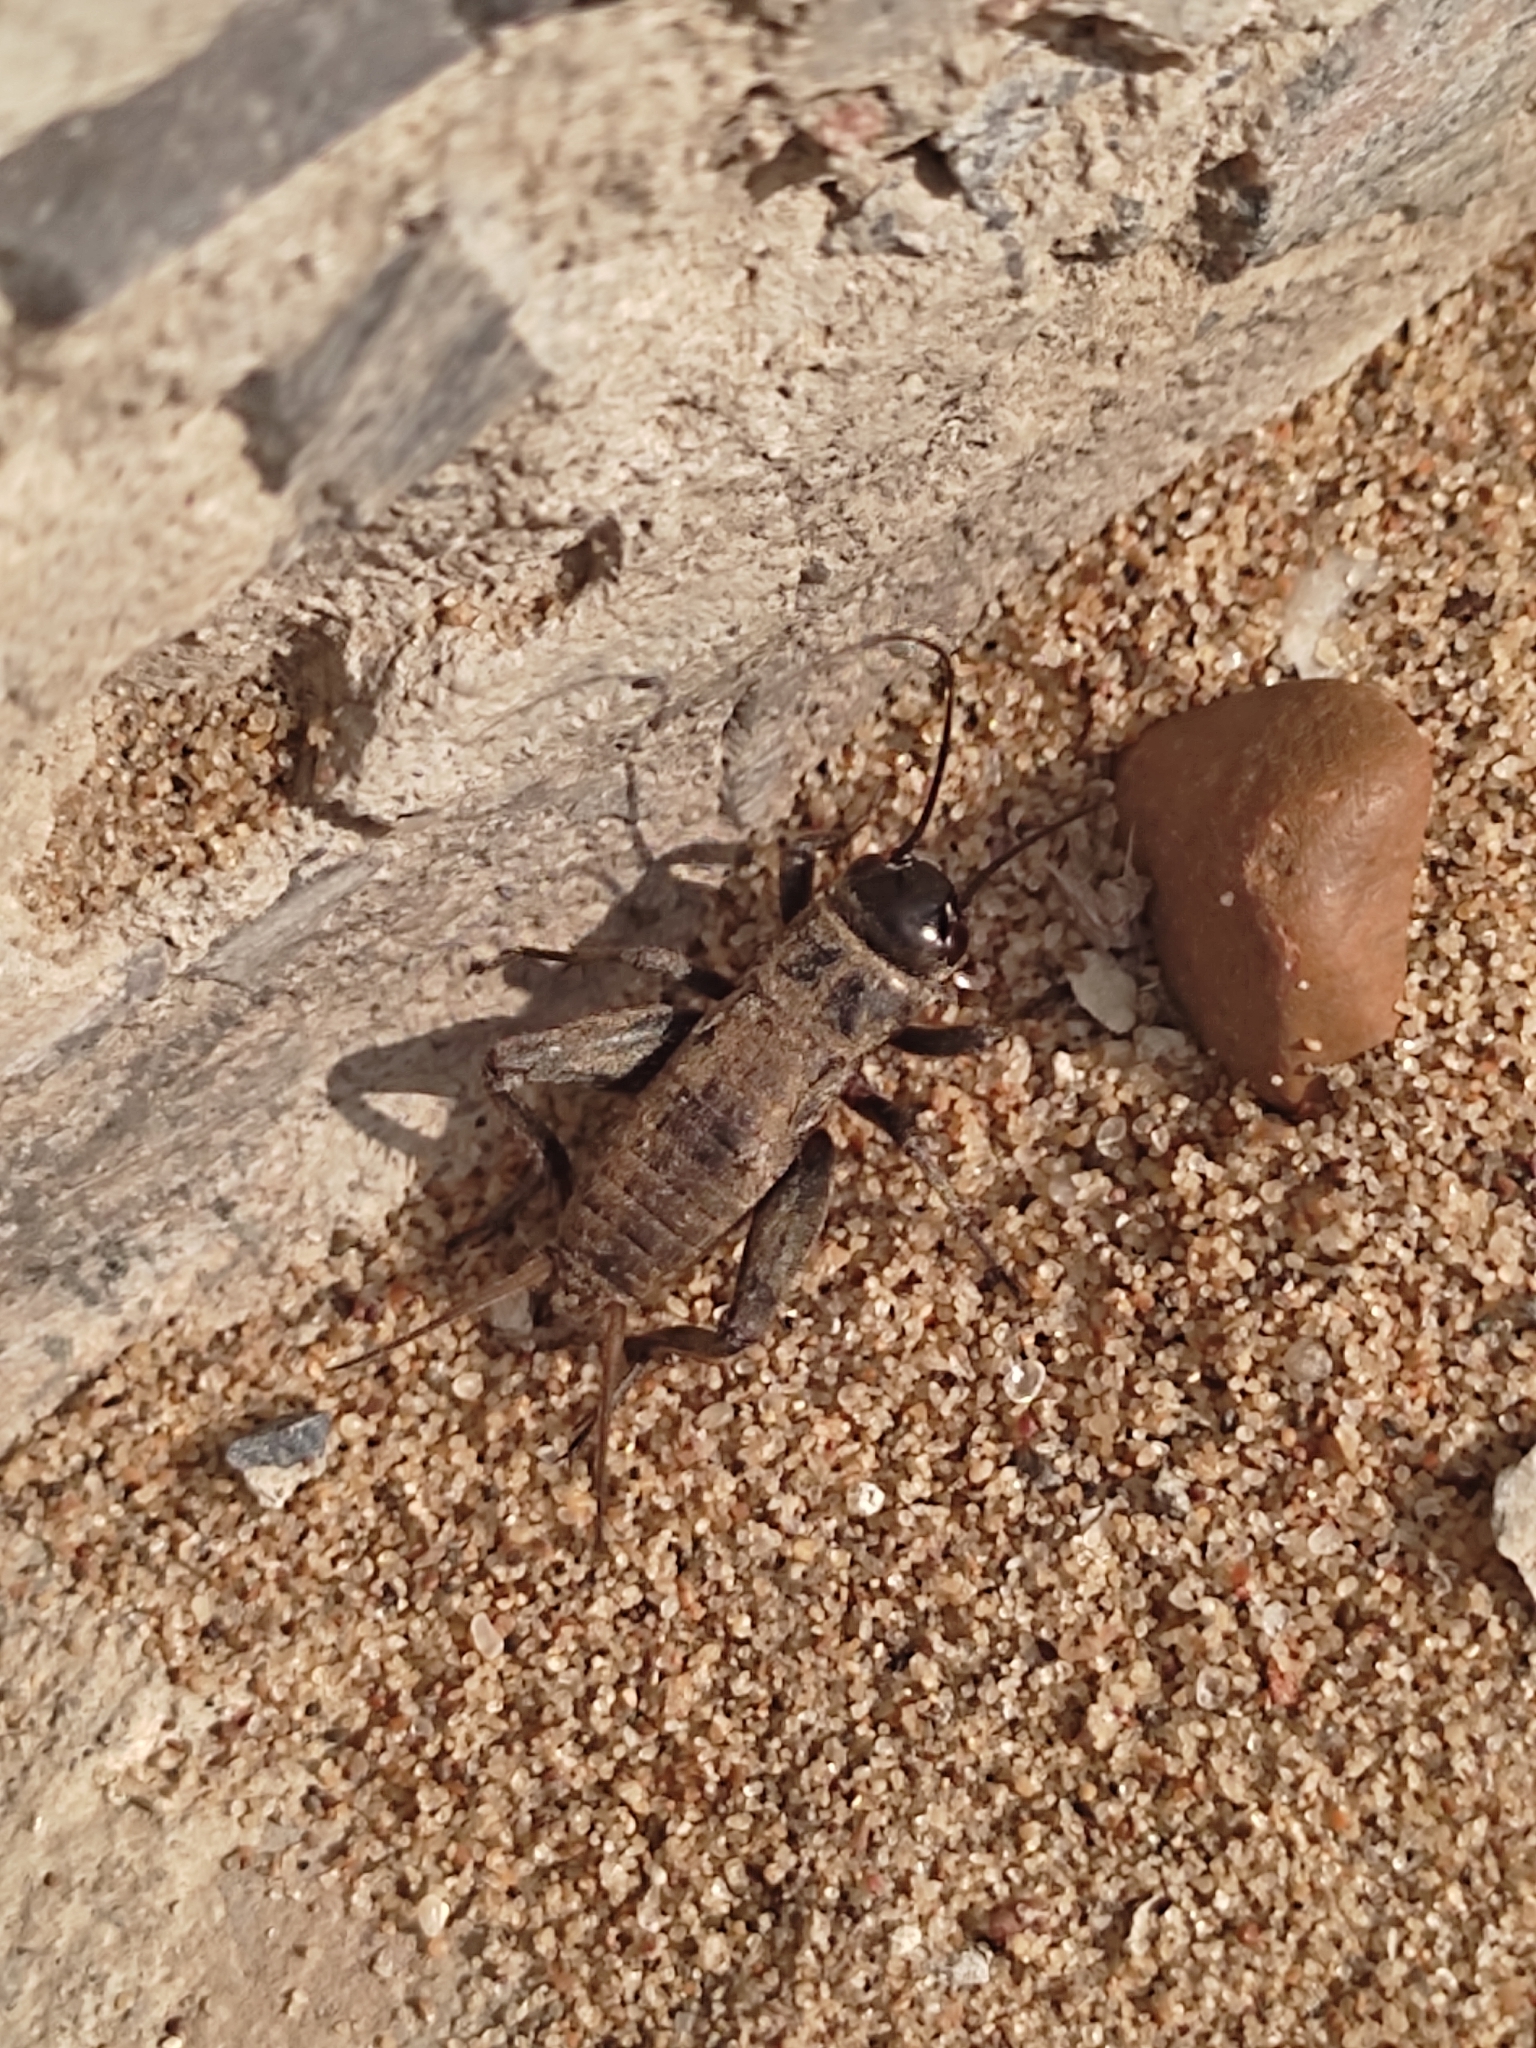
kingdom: Animalia
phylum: Arthropoda
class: Insecta
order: Orthoptera
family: Gryllidae
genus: Melanogryllus
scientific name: Melanogryllus desertus
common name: Desert cricket
